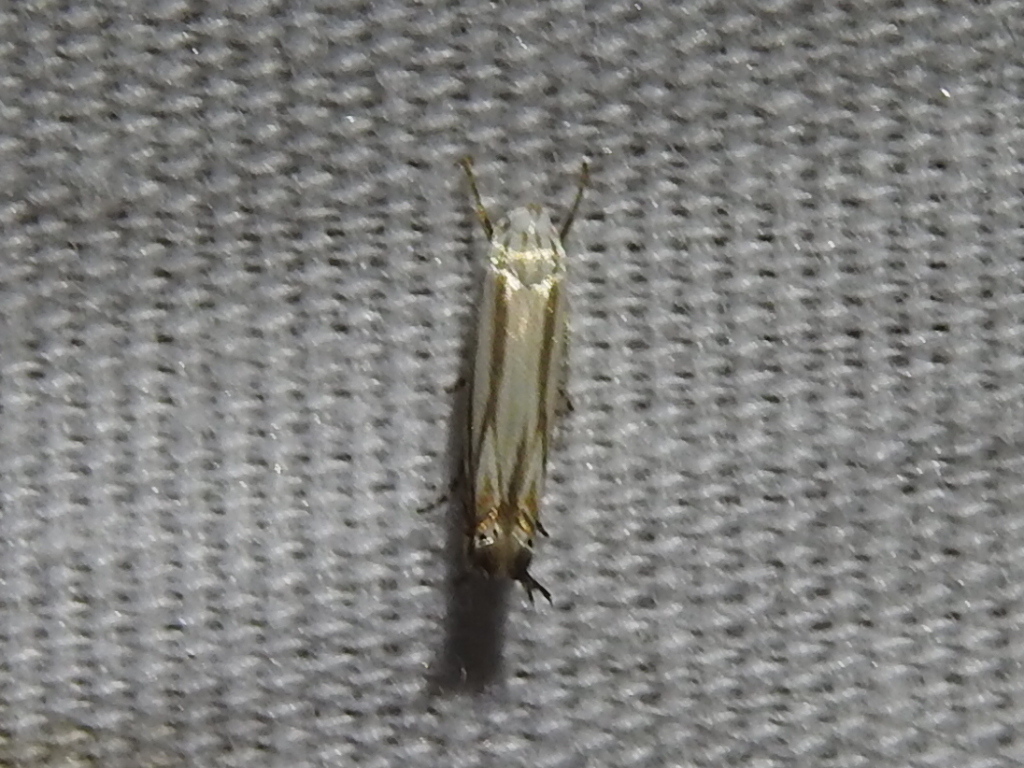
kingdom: Animalia
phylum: Arthropoda
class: Insecta
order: Lepidoptera
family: Gelechiidae
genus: Polyhymno
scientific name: Polyhymno luteostrigella
